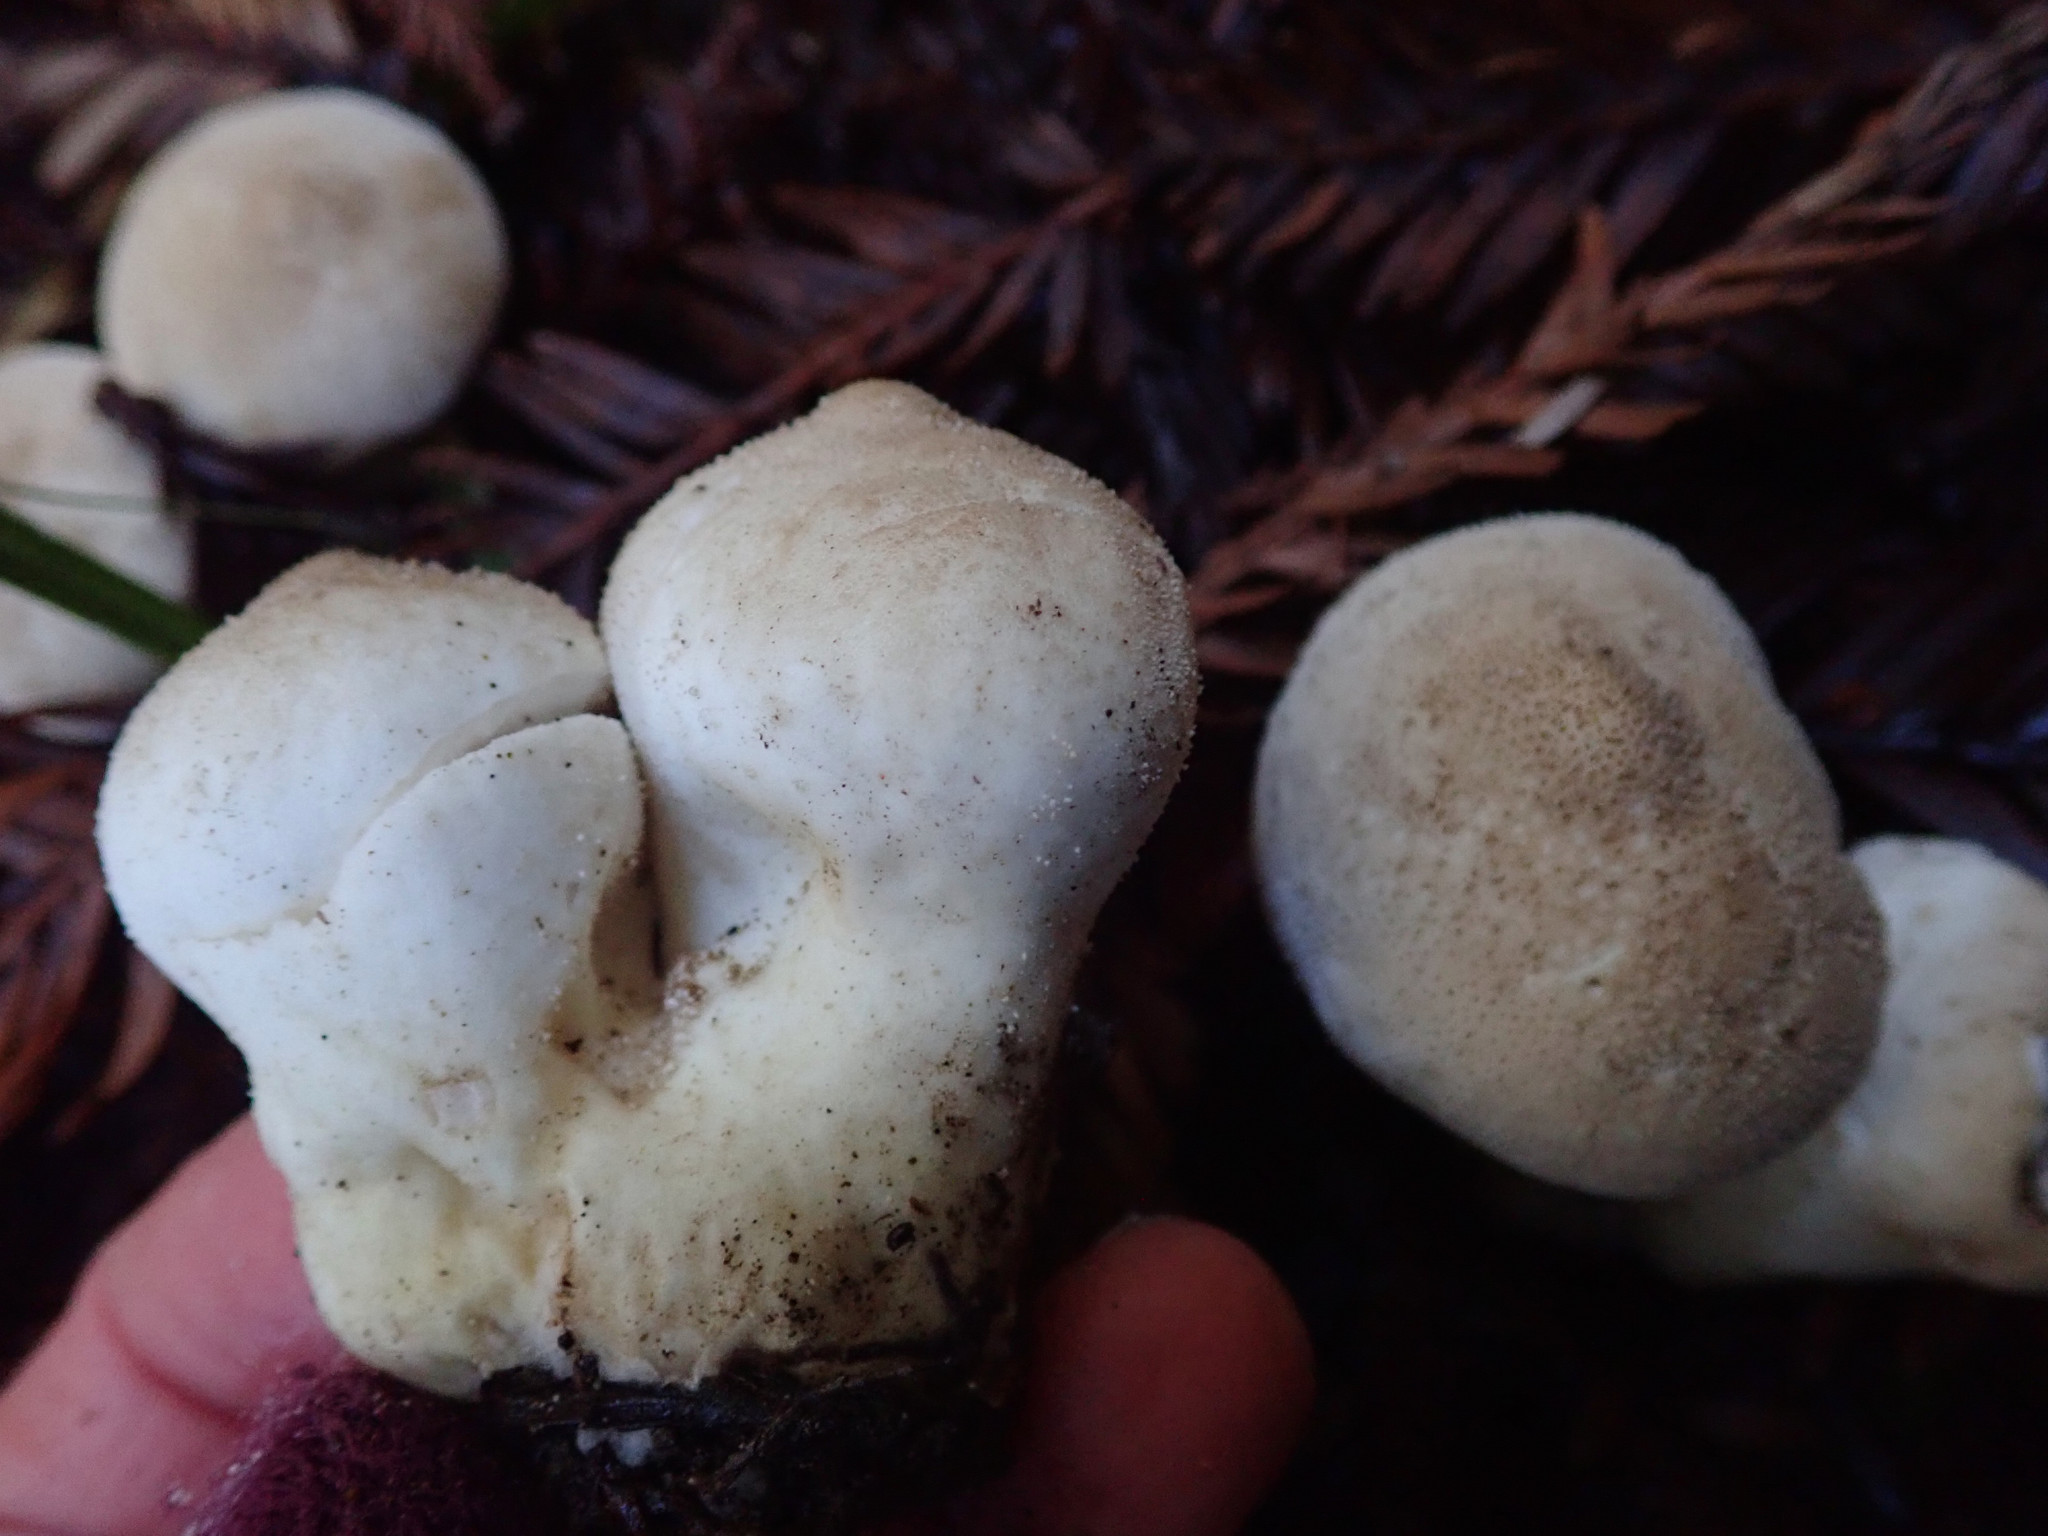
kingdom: Fungi
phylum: Basidiomycota
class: Agaricomycetes
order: Agaricales
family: Lycoperdaceae
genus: Lycoperdon
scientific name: Lycoperdon perlatum
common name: Common puffball
